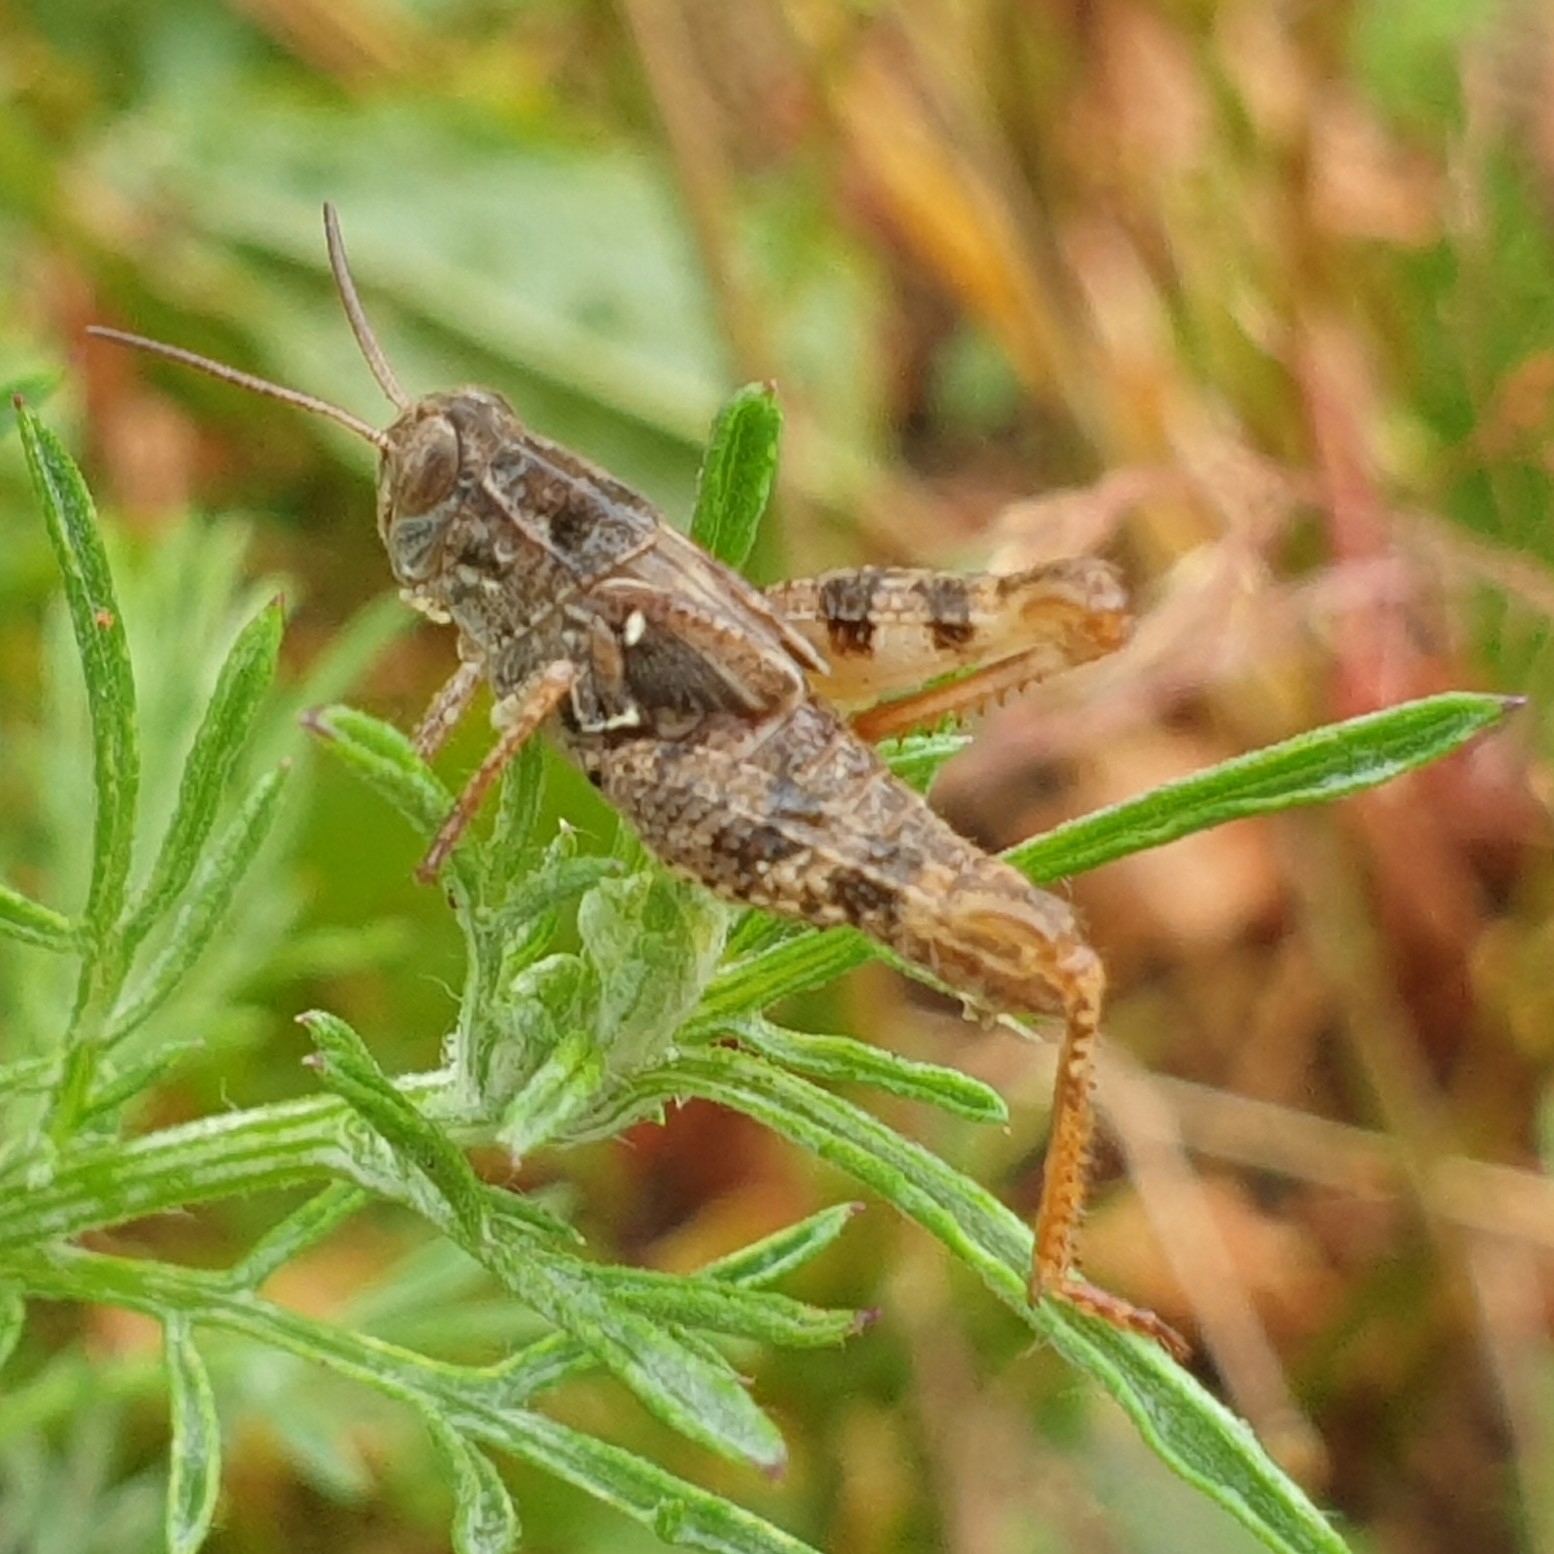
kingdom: Animalia
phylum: Arthropoda
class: Insecta
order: Orthoptera
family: Acrididae
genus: Calliptamus
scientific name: Calliptamus italicus
